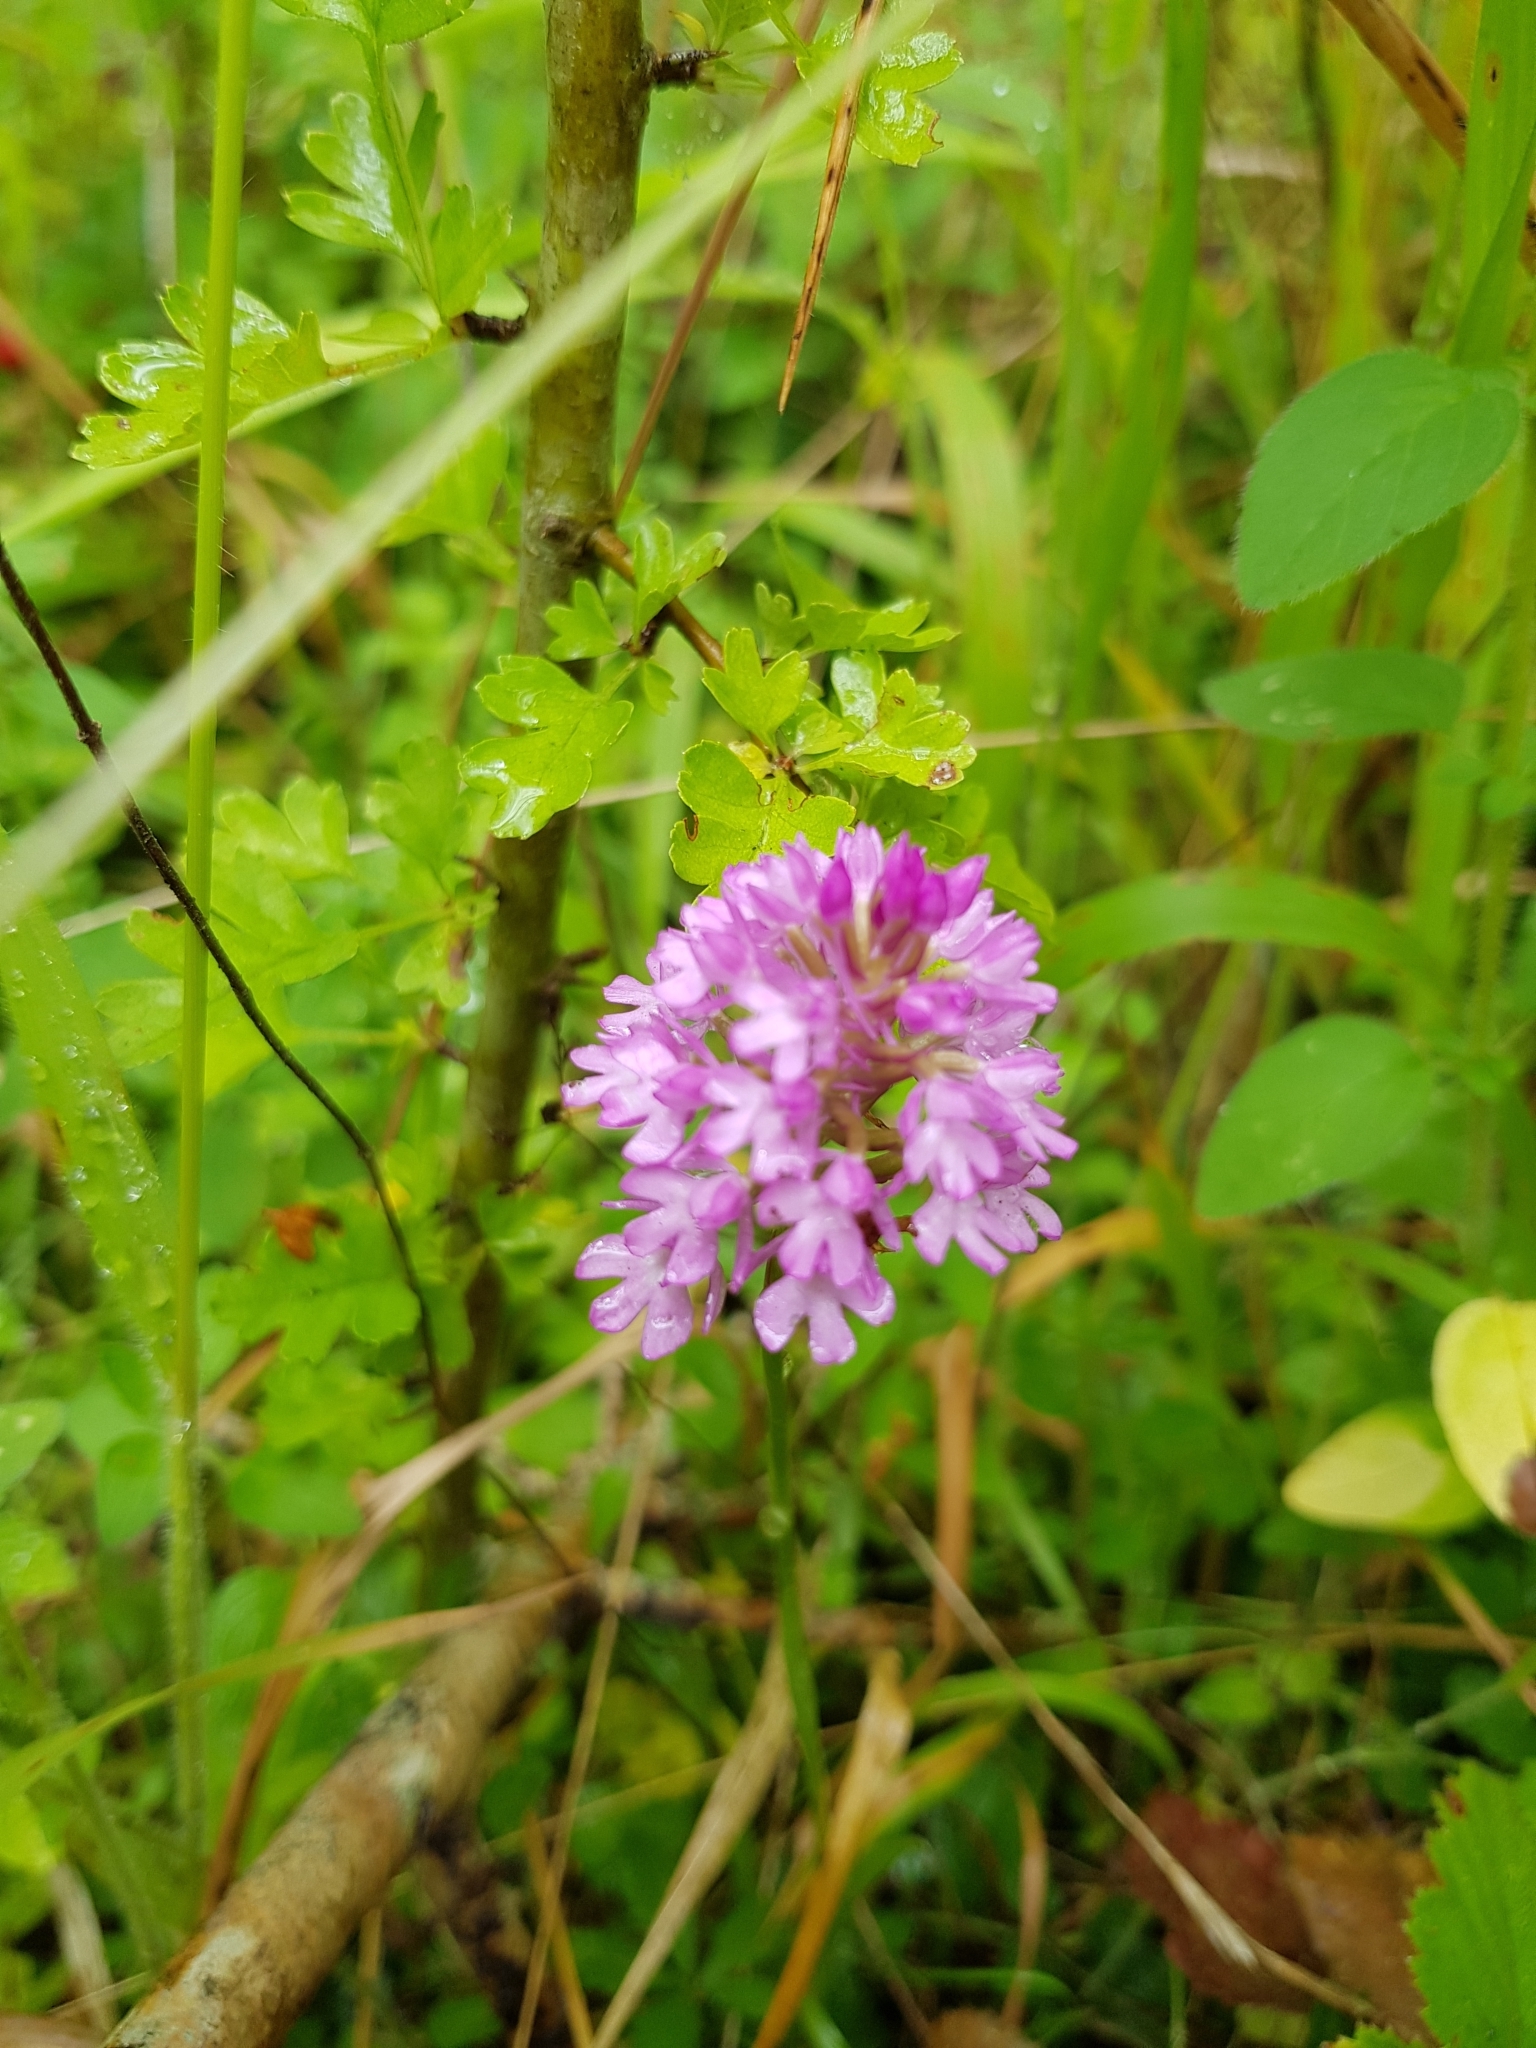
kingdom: Plantae
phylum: Tracheophyta
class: Liliopsida
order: Asparagales
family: Orchidaceae
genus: Anacamptis
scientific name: Anacamptis pyramidalis
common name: Pyramidal orchid
